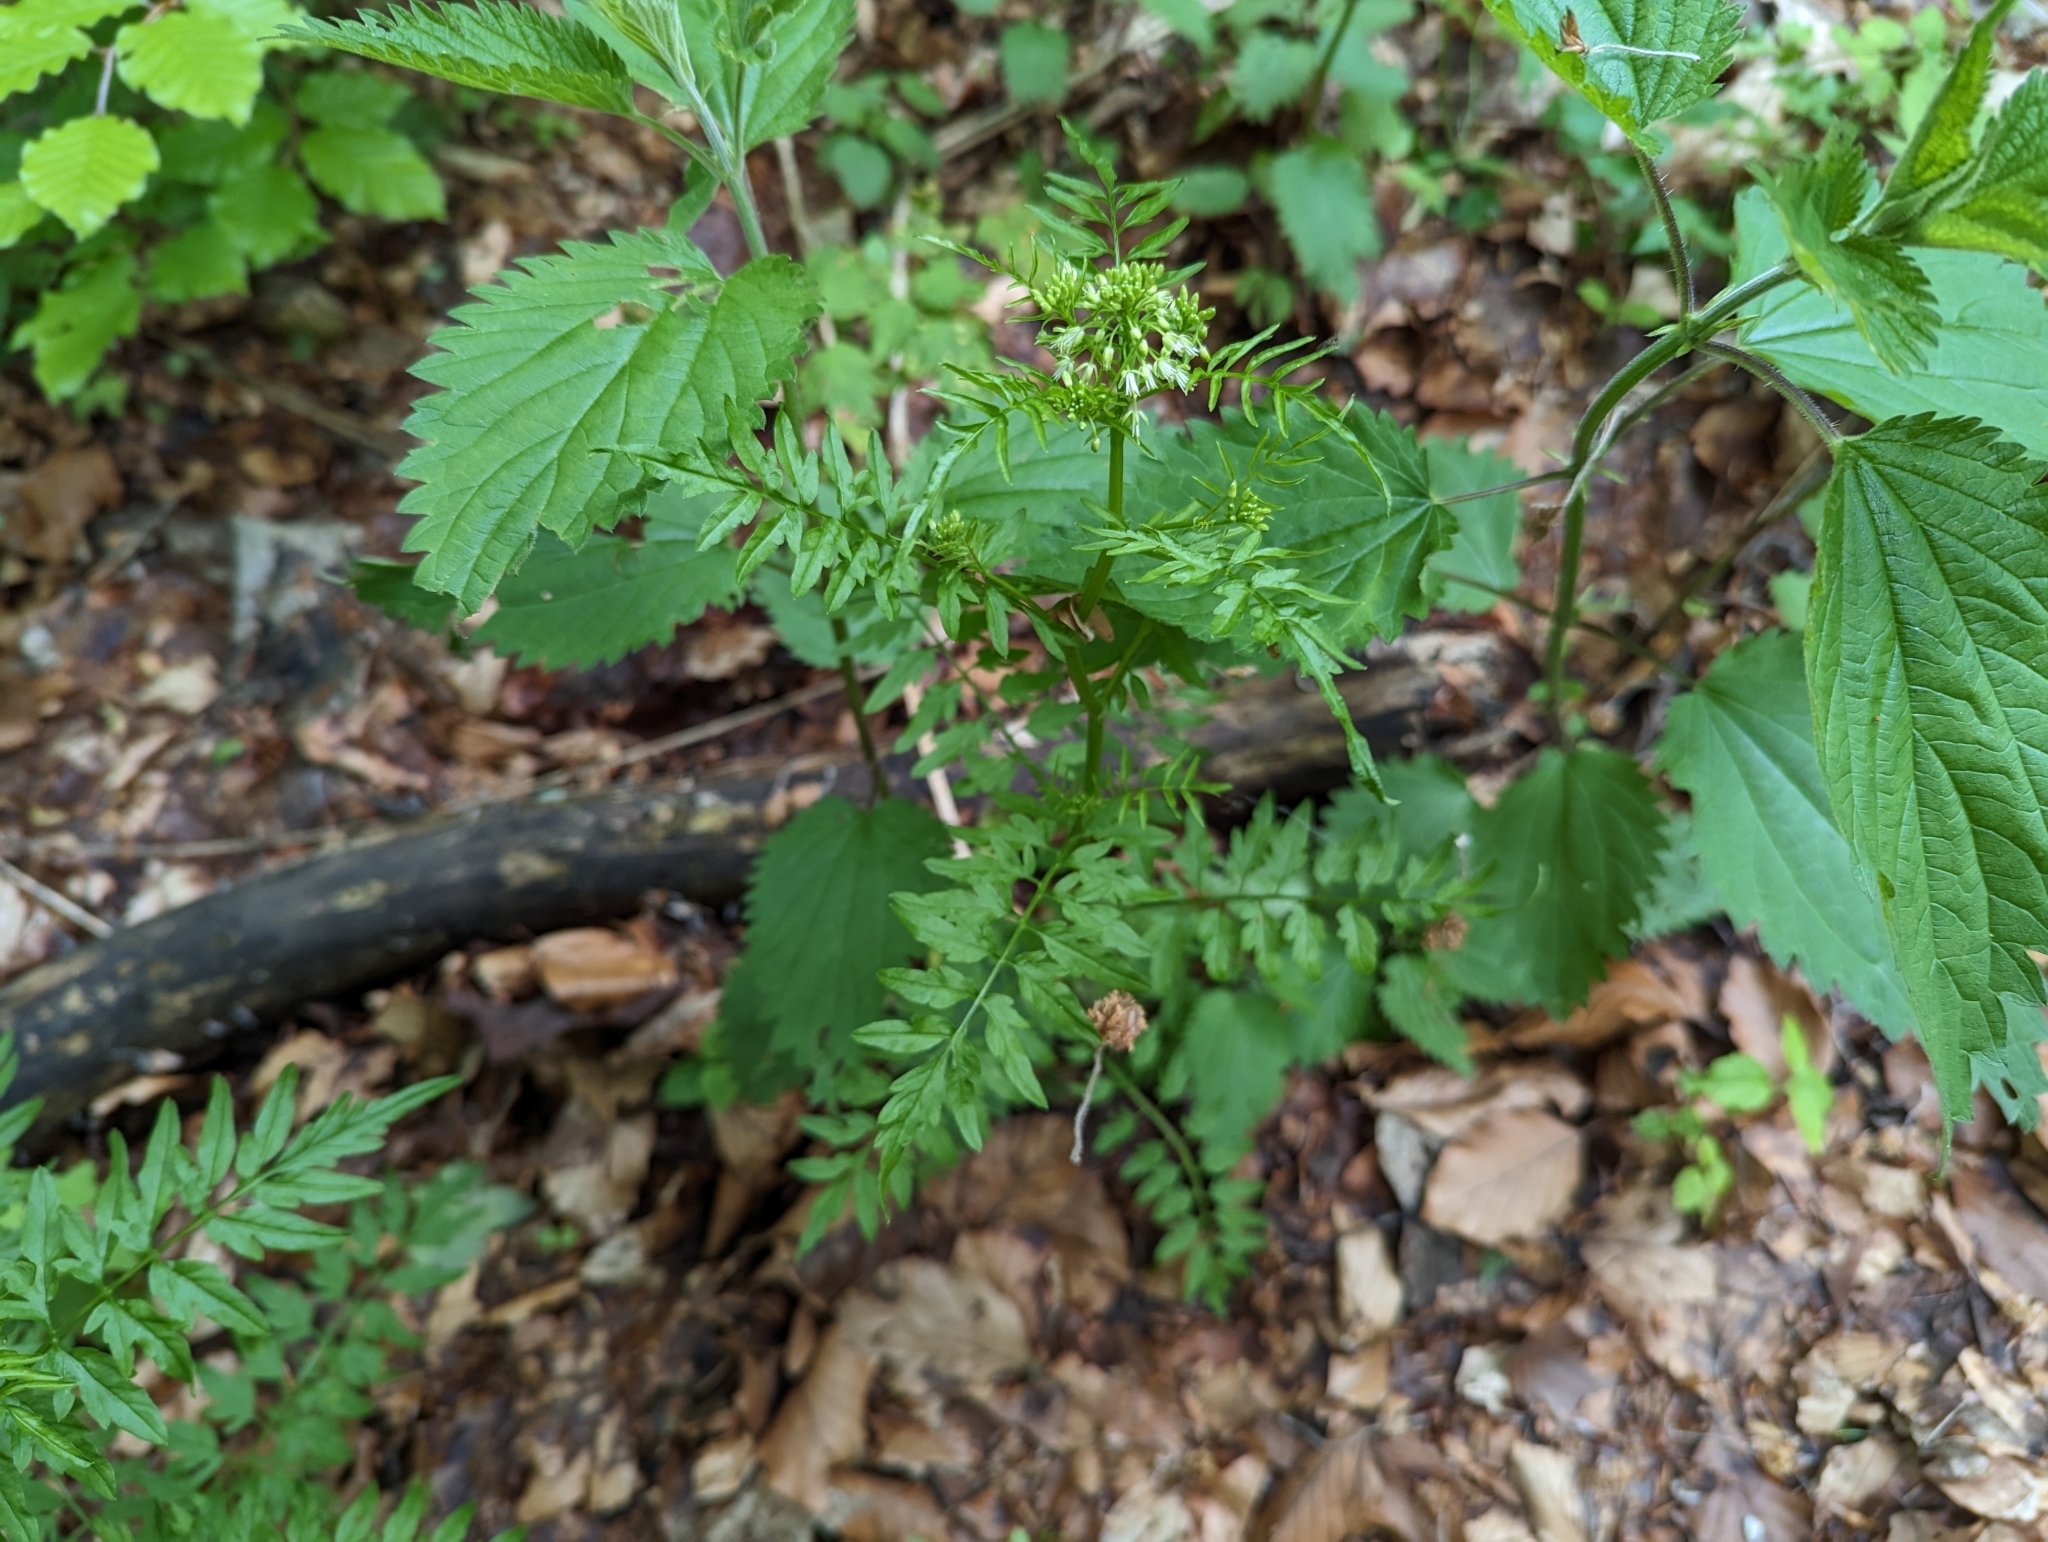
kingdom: Plantae
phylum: Tracheophyta
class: Magnoliopsida
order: Brassicales
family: Brassicaceae
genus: Cardamine
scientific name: Cardamine impatiens
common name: Narrow-leaved bitter-cress
